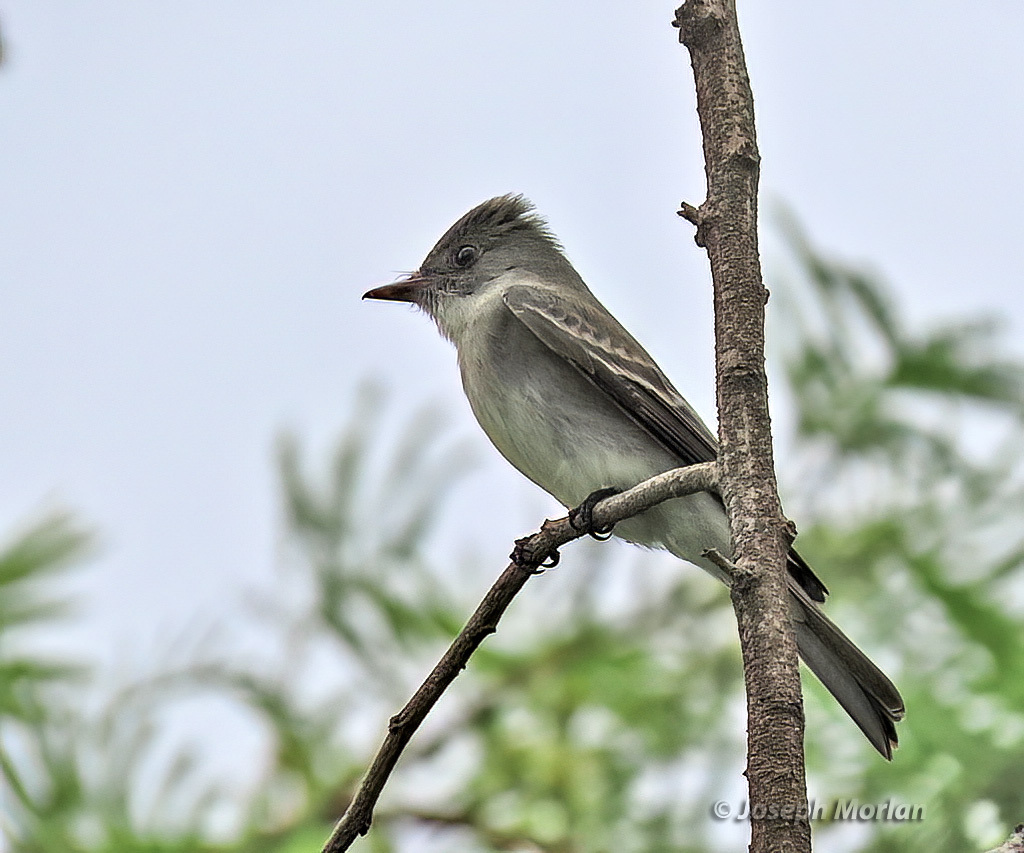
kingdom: Animalia
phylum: Chordata
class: Aves
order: Passeriformes
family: Tyrannidae
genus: Contopus
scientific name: Contopus virens
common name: Eastern wood-pewee
